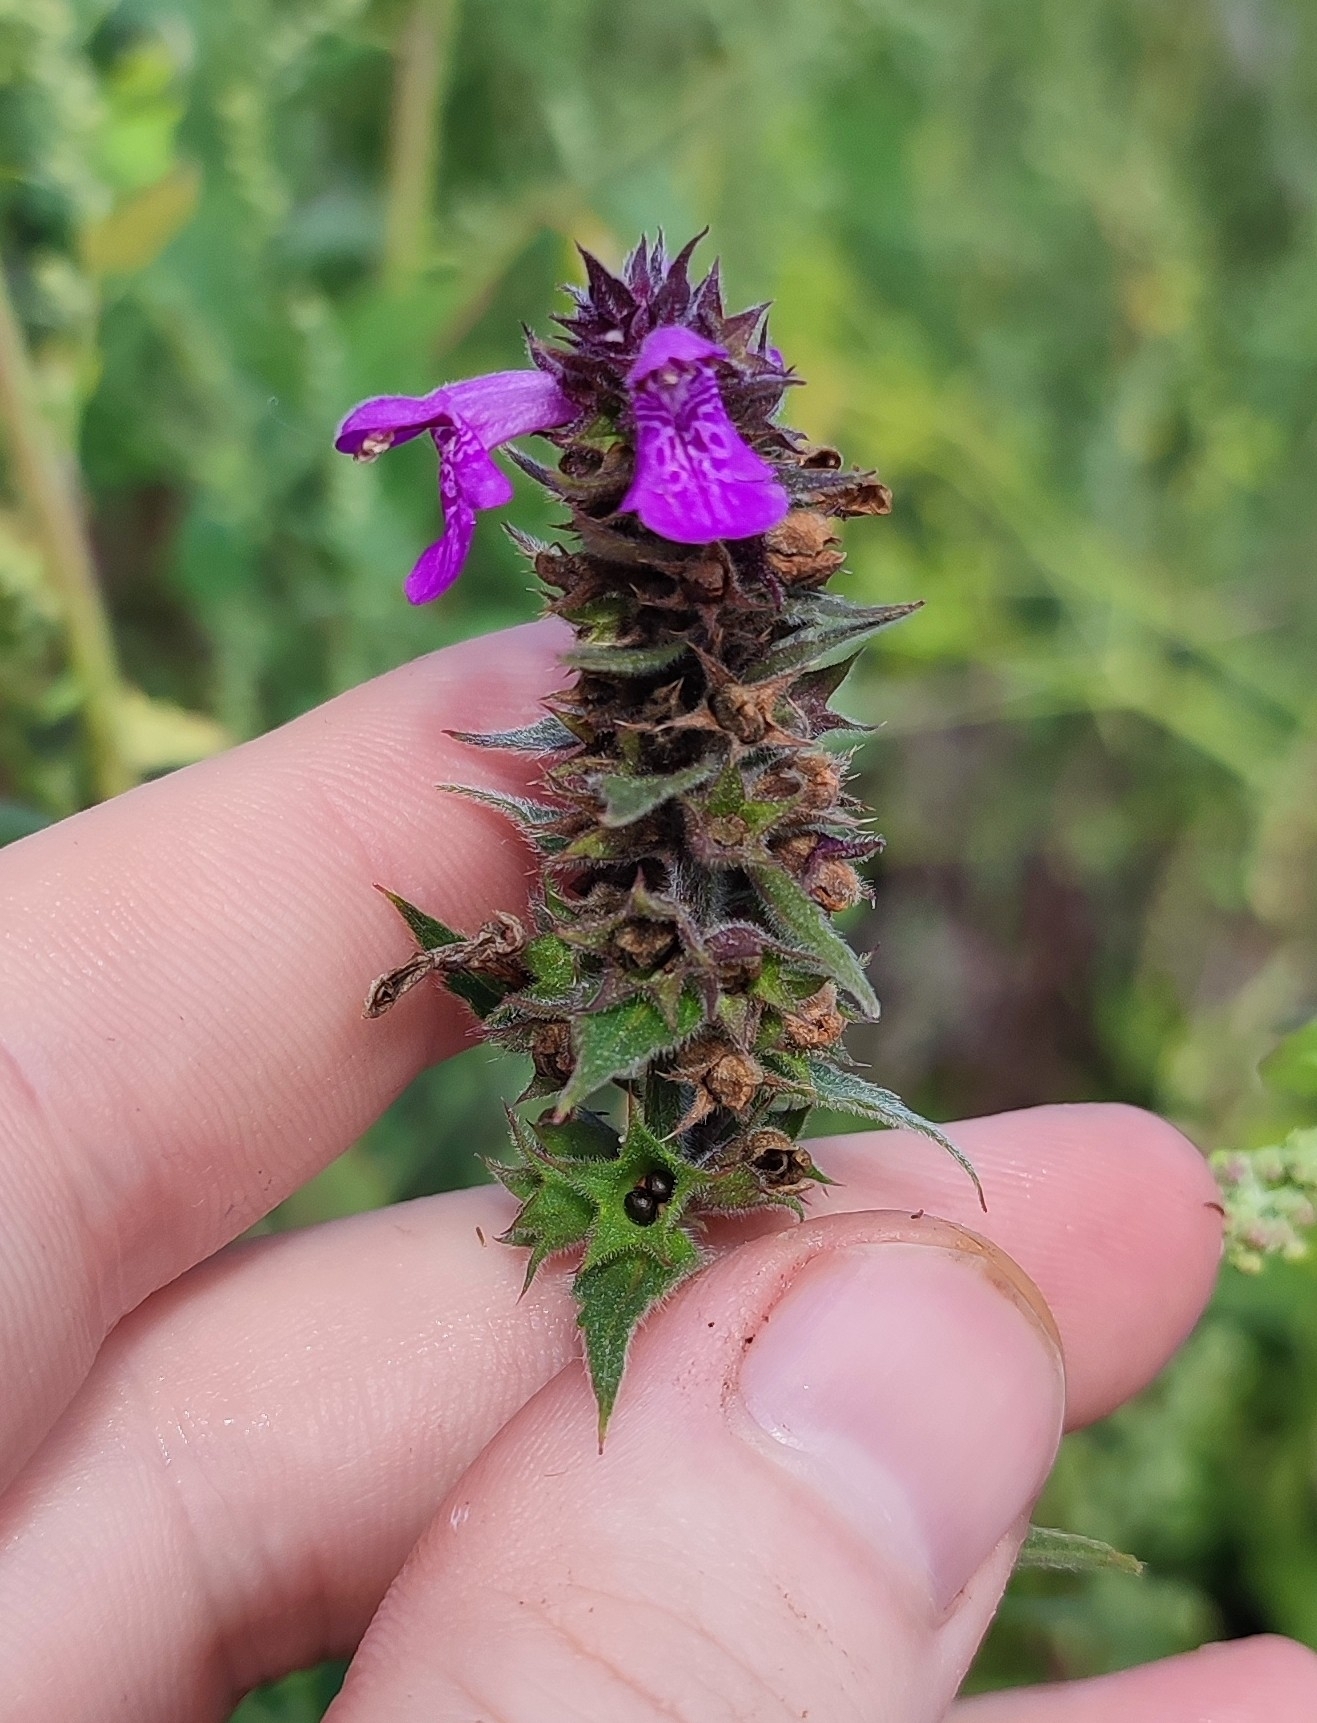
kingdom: Plantae
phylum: Tracheophyta
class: Magnoliopsida
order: Lamiales
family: Lamiaceae
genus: Stachys
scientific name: Stachys palustris
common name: Marsh woundwort
